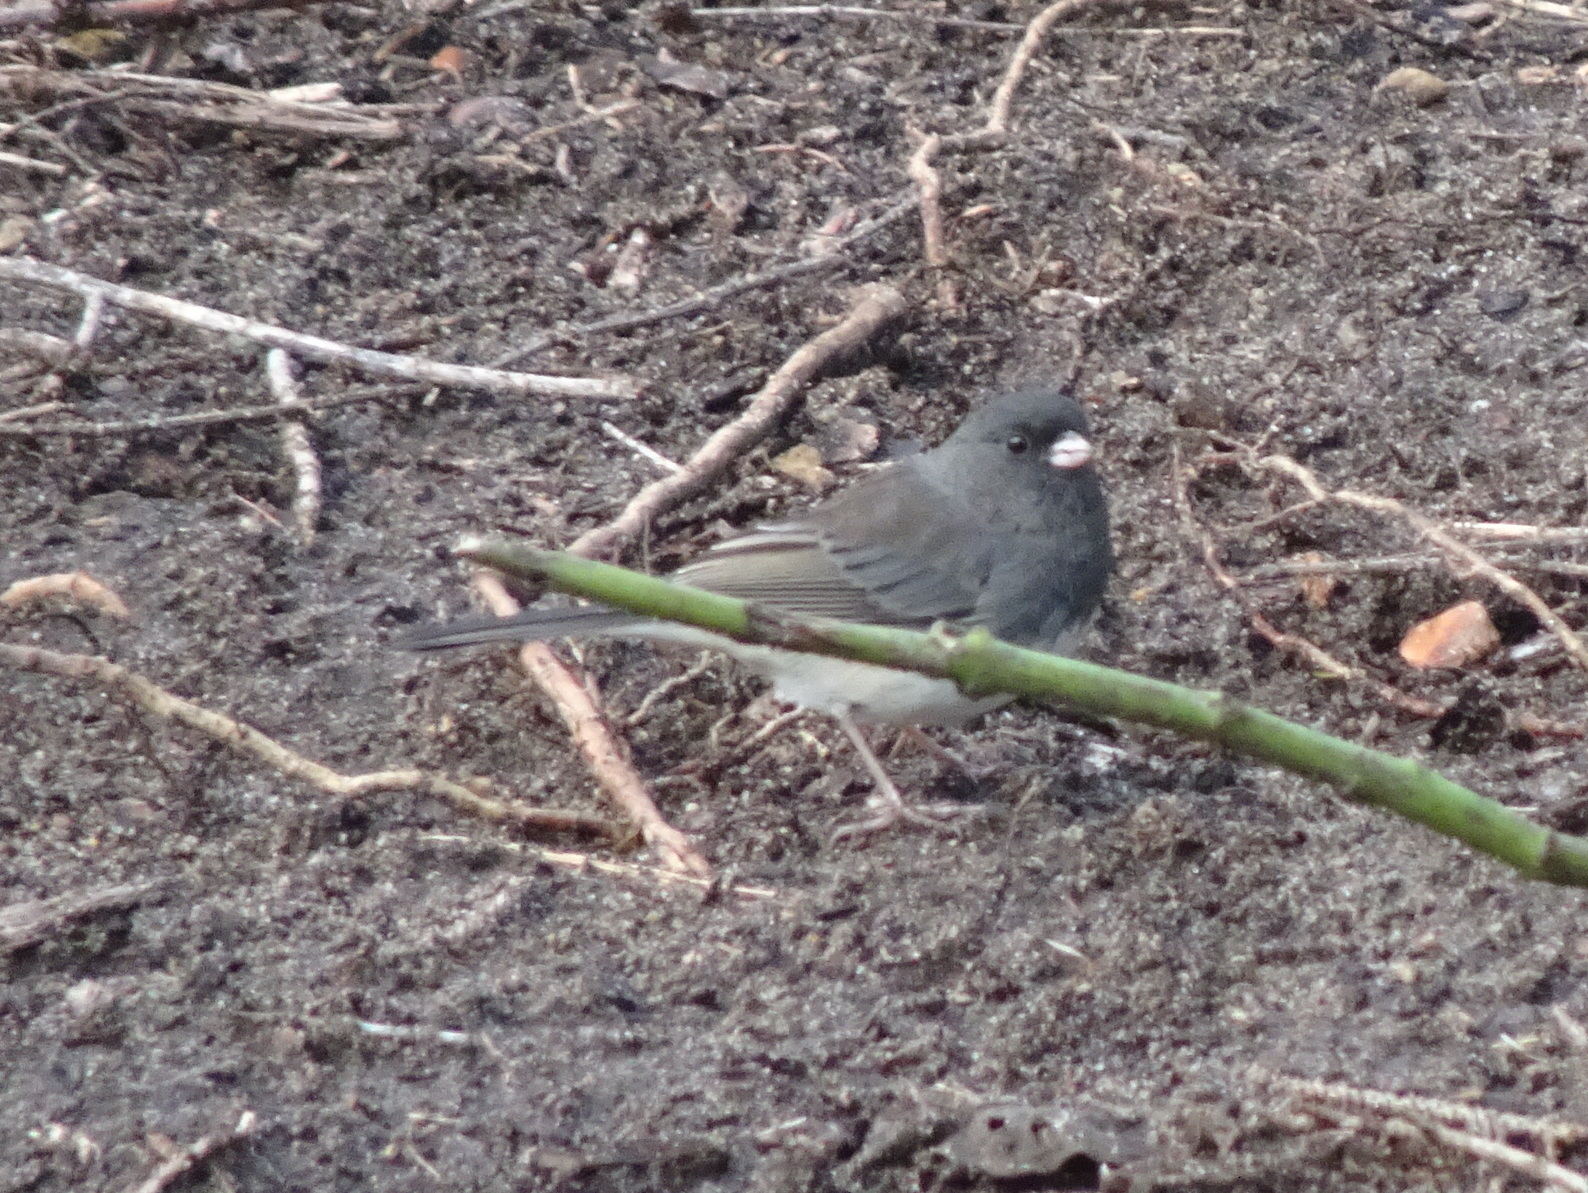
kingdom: Animalia
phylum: Chordata
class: Aves
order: Passeriformes
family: Passerellidae
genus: Junco
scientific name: Junco hyemalis
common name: Dark-eyed junco
